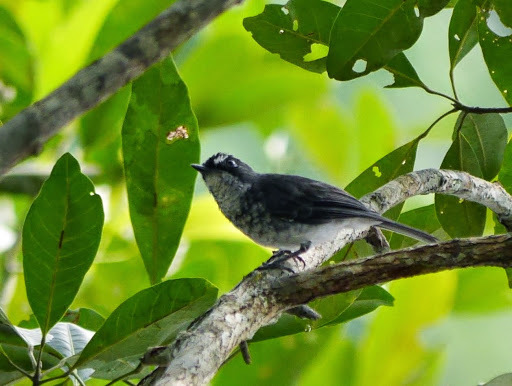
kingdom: Animalia
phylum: Chordata
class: Aves
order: Passeriformes
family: Muscicapidae
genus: Fraseria
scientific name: Fraseria cinerascens
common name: White-browed forest flycatcher
